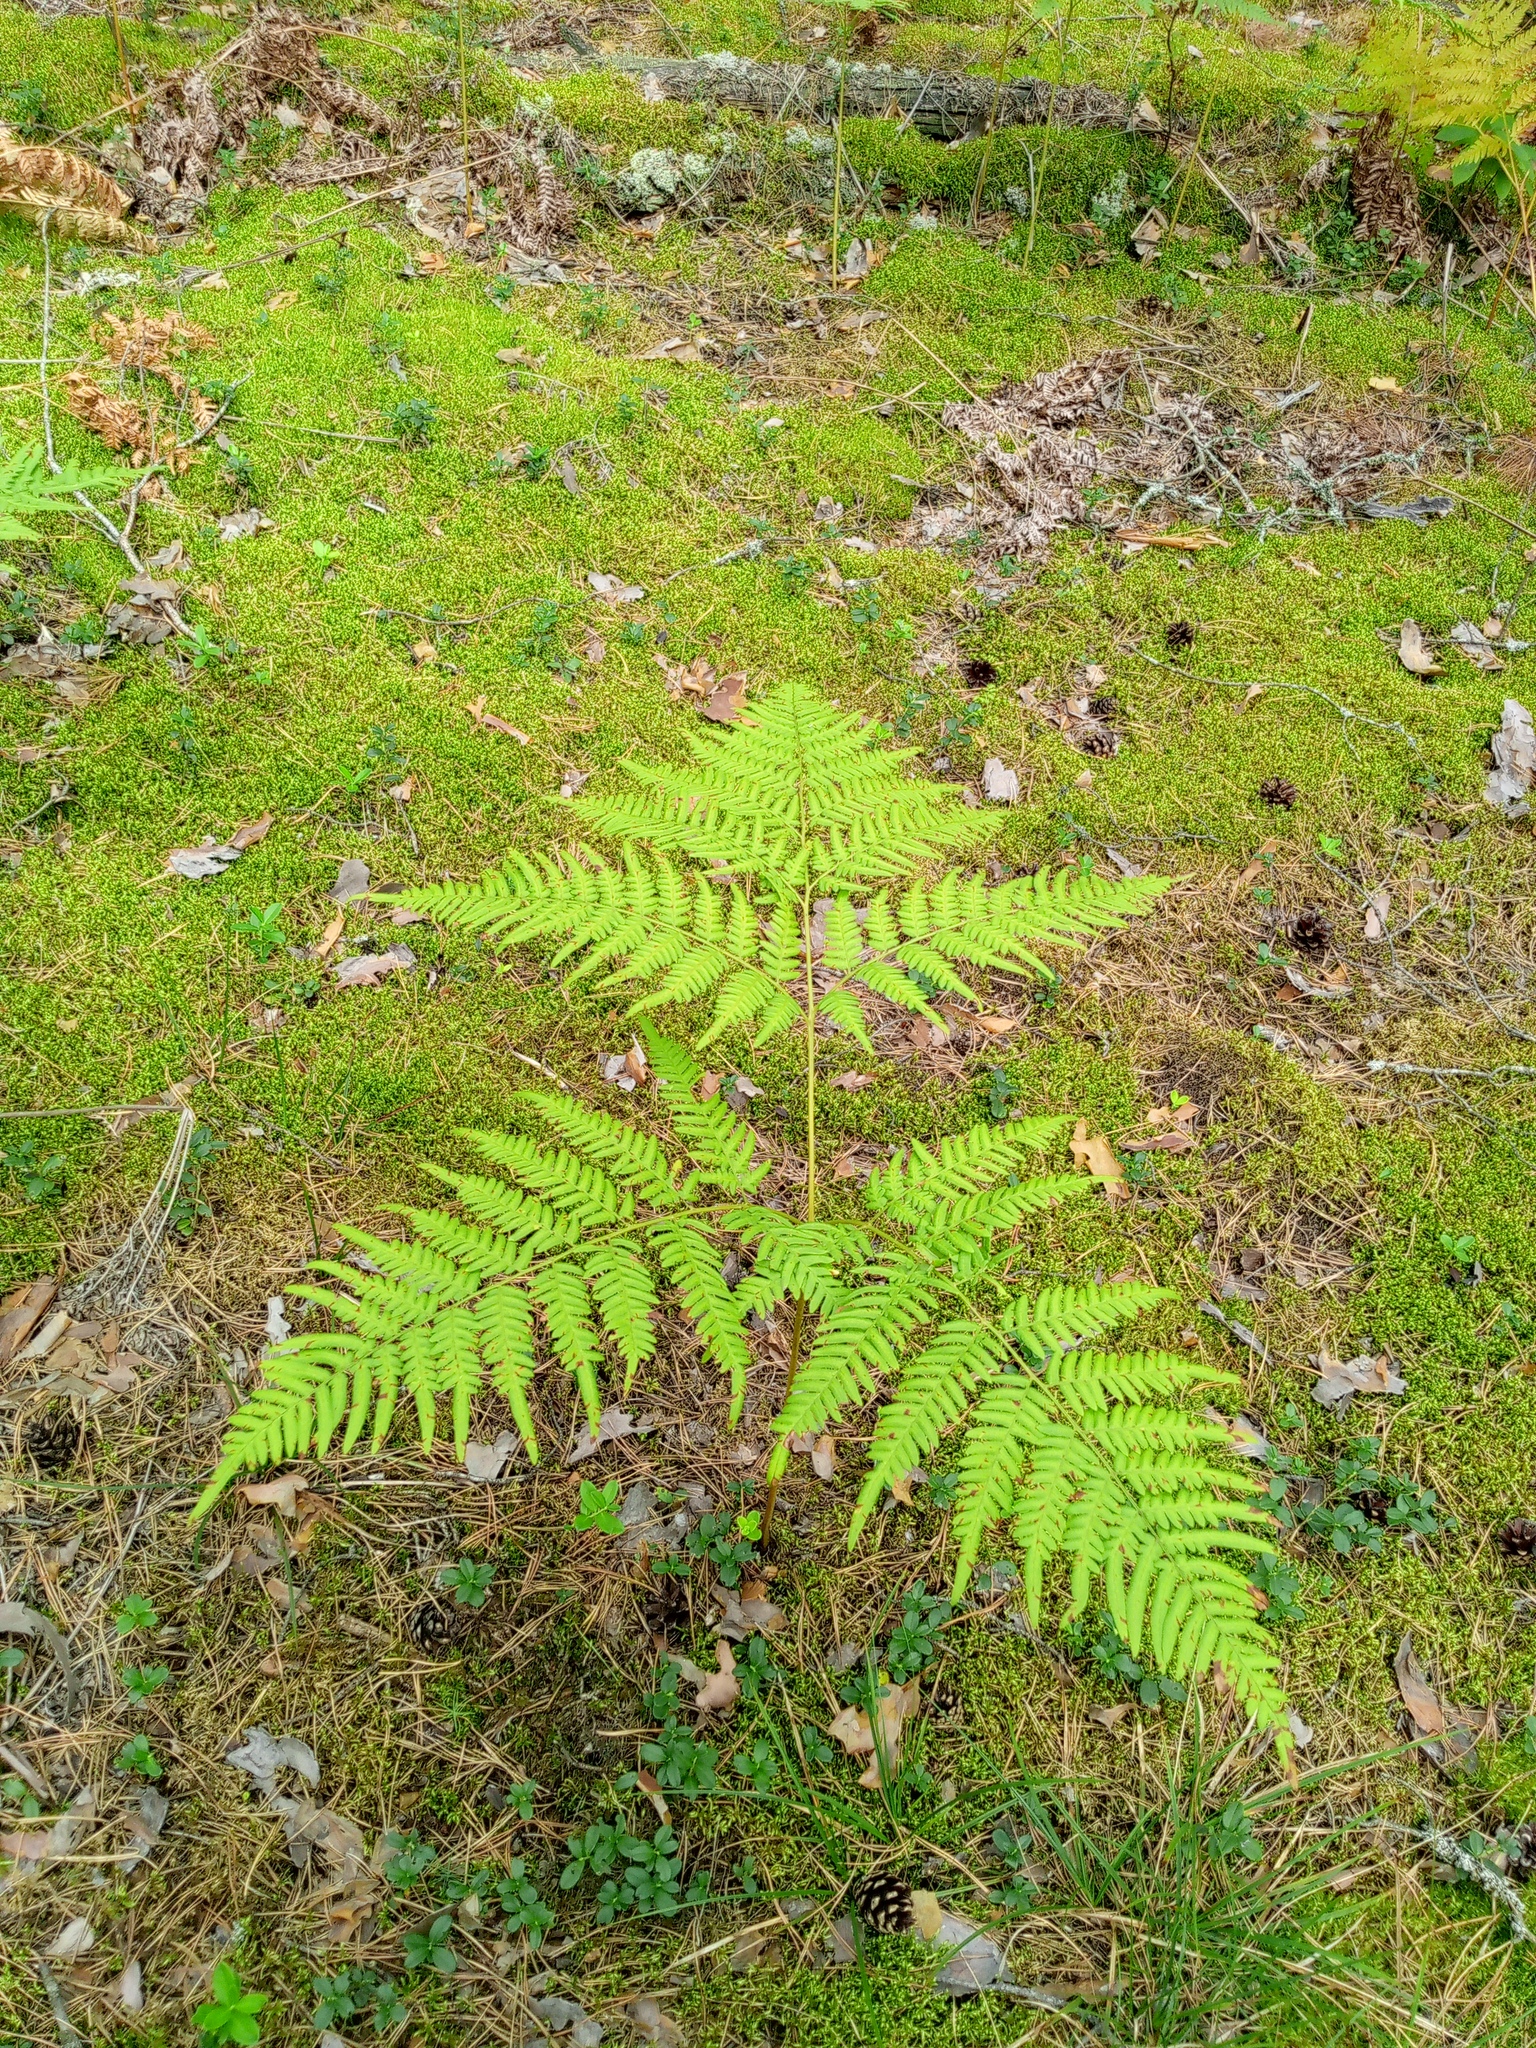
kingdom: Plantae
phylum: Tracheophyta
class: Polypodiopsida
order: Polypodiales
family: Dennstaedtiaceae
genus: Pteridium
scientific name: Pteridium aquilinum
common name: Bracken
